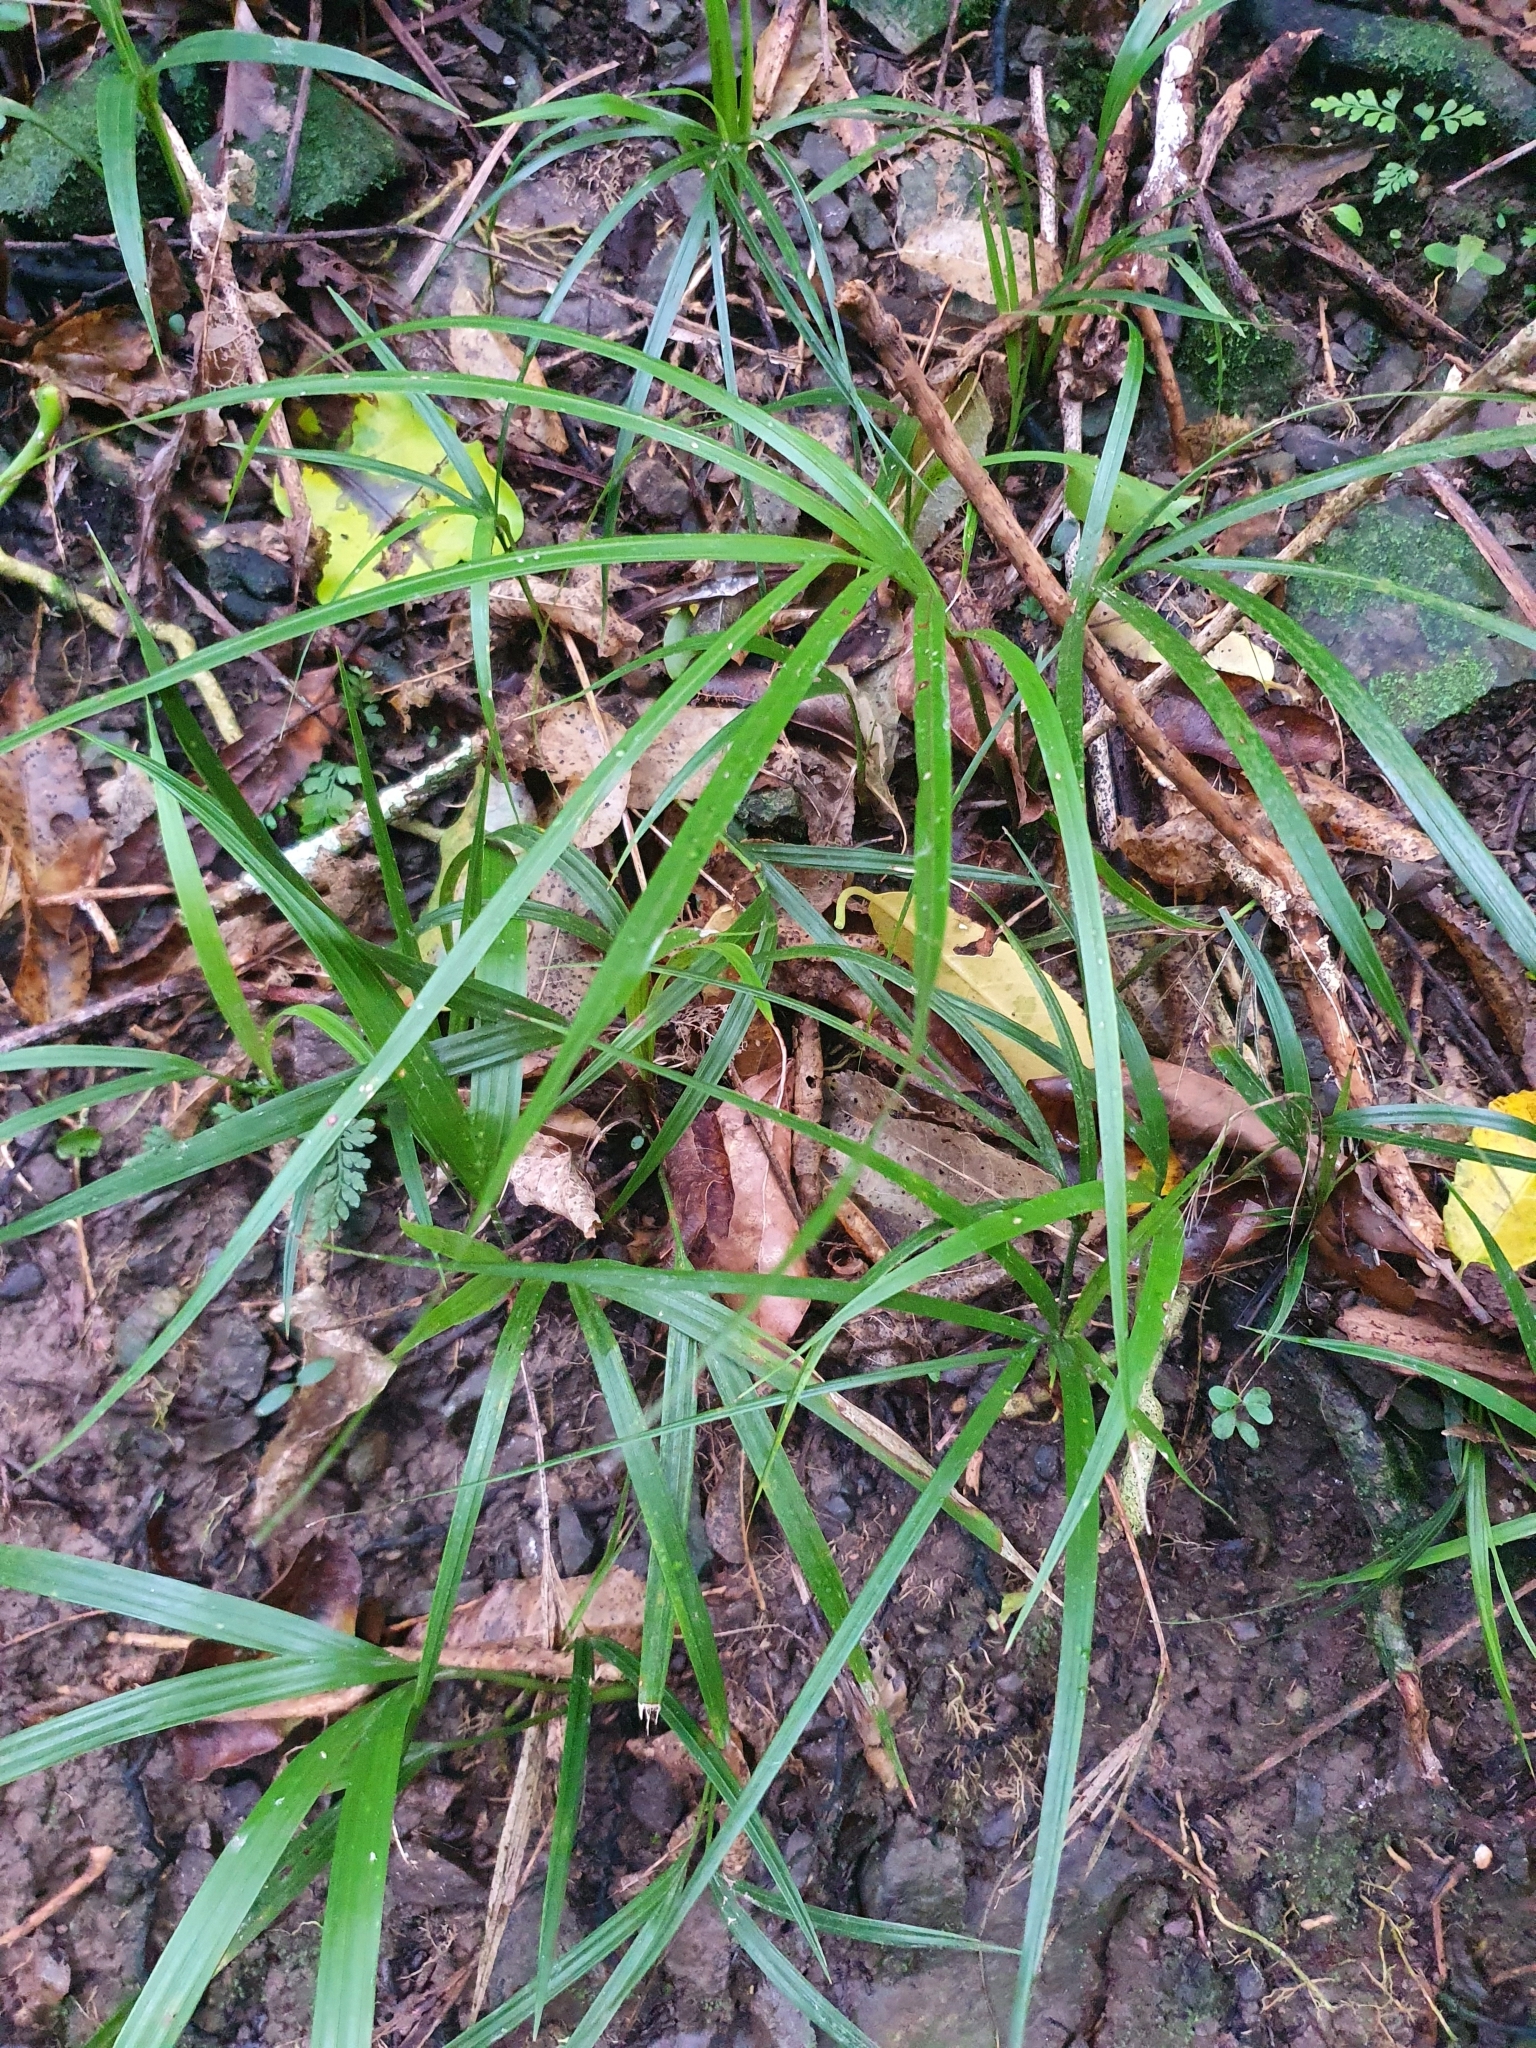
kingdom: Plantae
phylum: Tracheophyta
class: Liliopsida
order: Arecales
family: Arecaceae
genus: Rhopalostylis
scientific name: Rhopalostylis sapida
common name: Feather-duster palm
